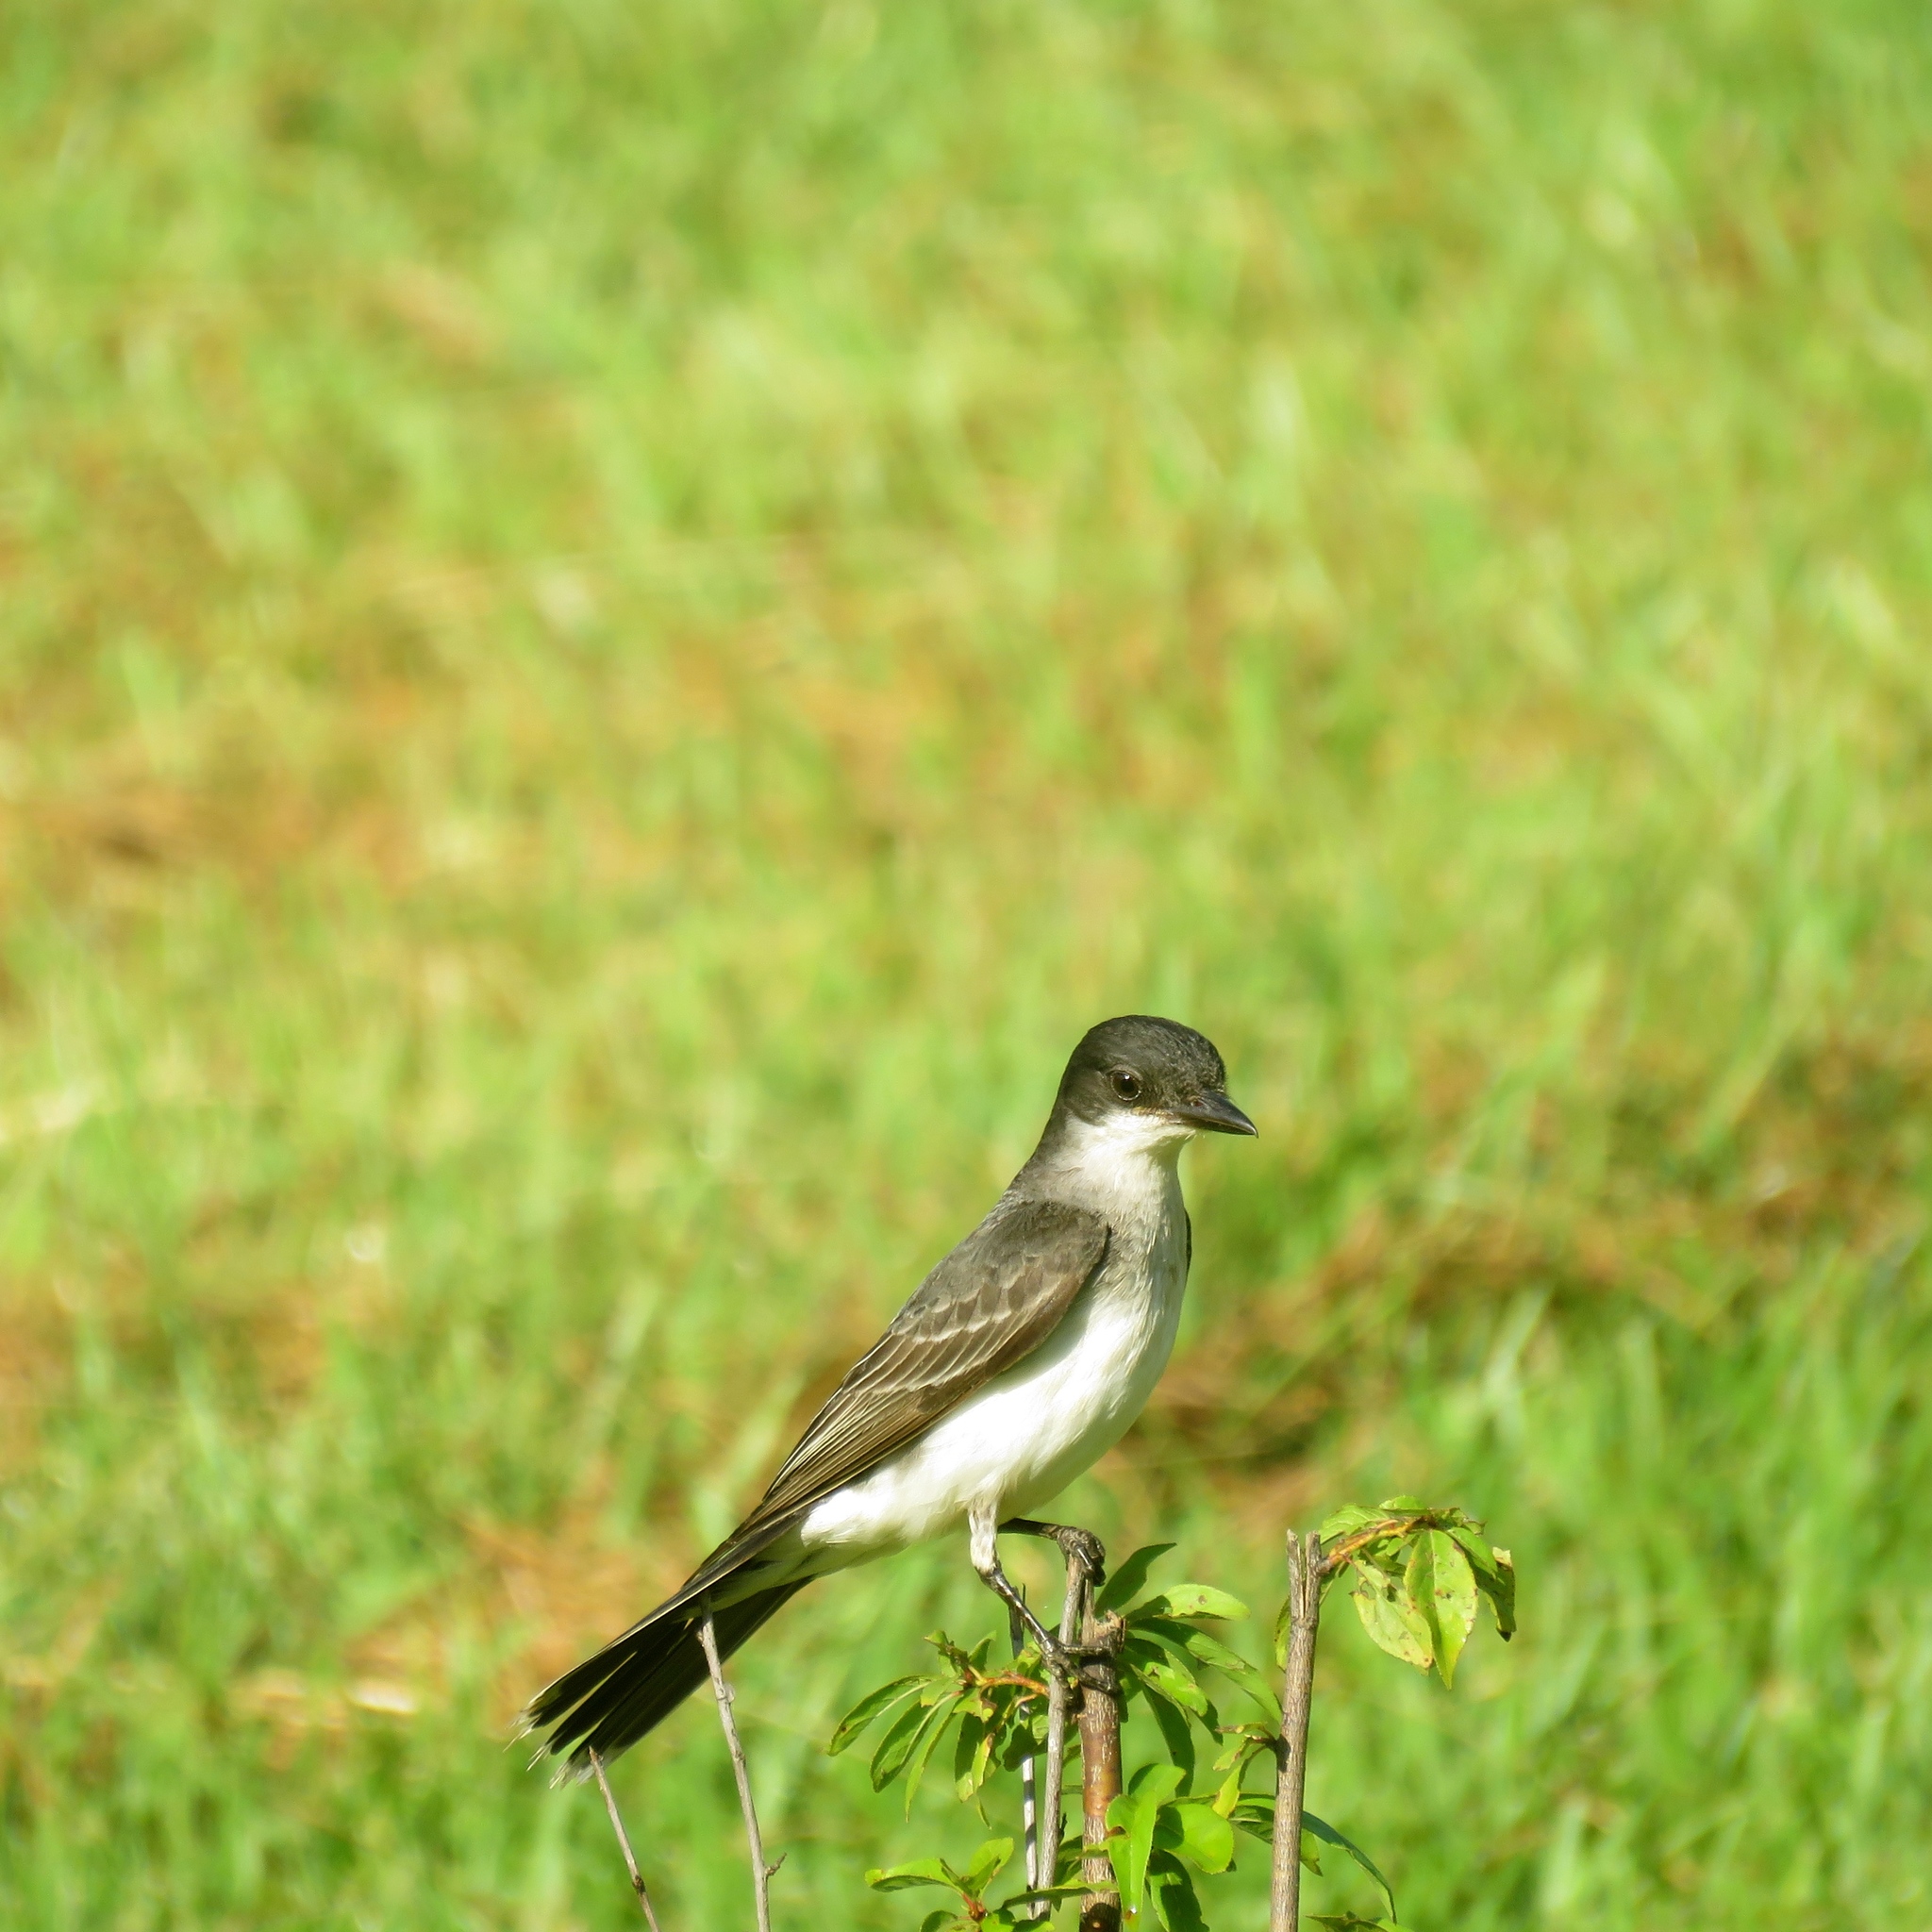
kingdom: Animalia
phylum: Chordata
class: Aves
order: Passeriformes
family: Tyrannidae
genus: Tyrannus
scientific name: Tyrannus tyrannus
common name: Eastern kingbird
